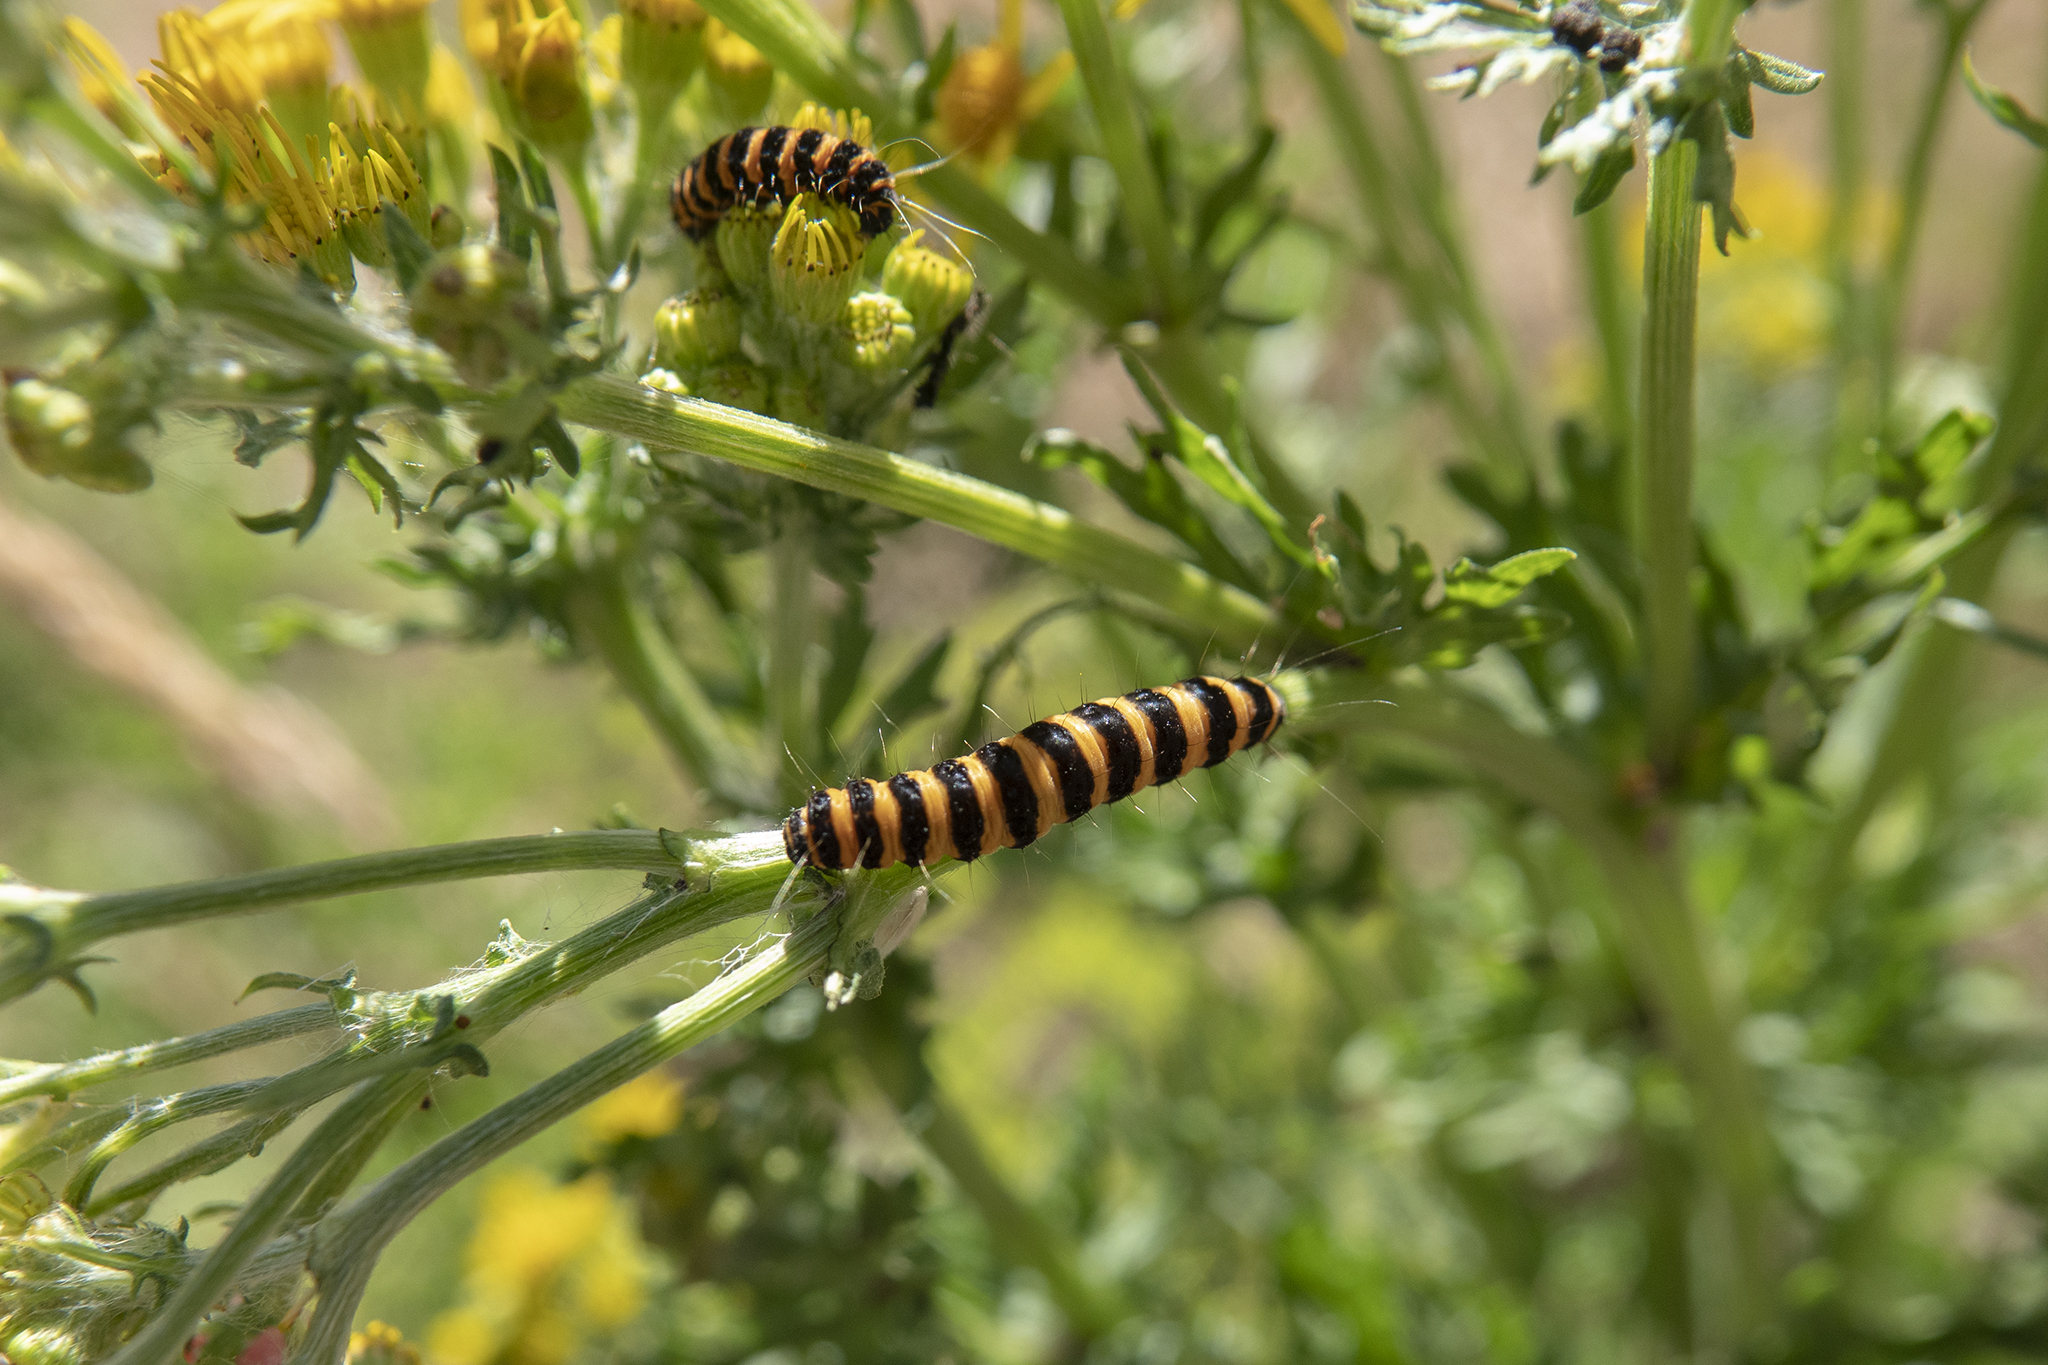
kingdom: Animalia
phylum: Arthropoda
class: Insecta
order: Lepidoptera
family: Erebidae
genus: Tyria
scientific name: Tyria jacobaeae
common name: Cinnabar
